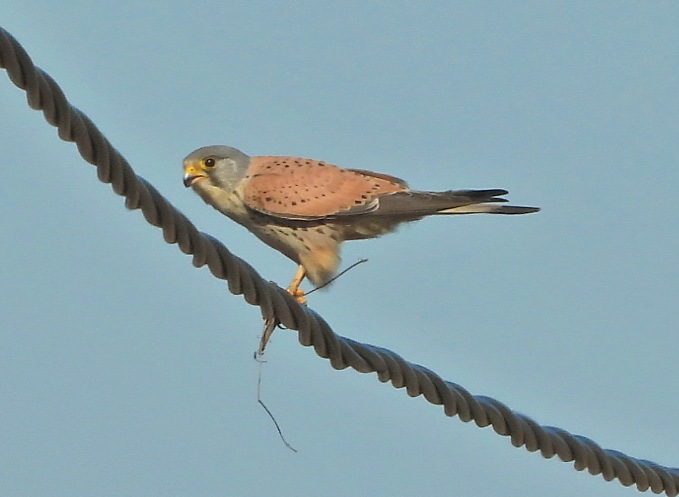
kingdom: Animalia
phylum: Chordata
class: Aves
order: Falconiformes
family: Falconidae
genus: Falco
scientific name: Falco tinnunculus
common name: Common kestrel
